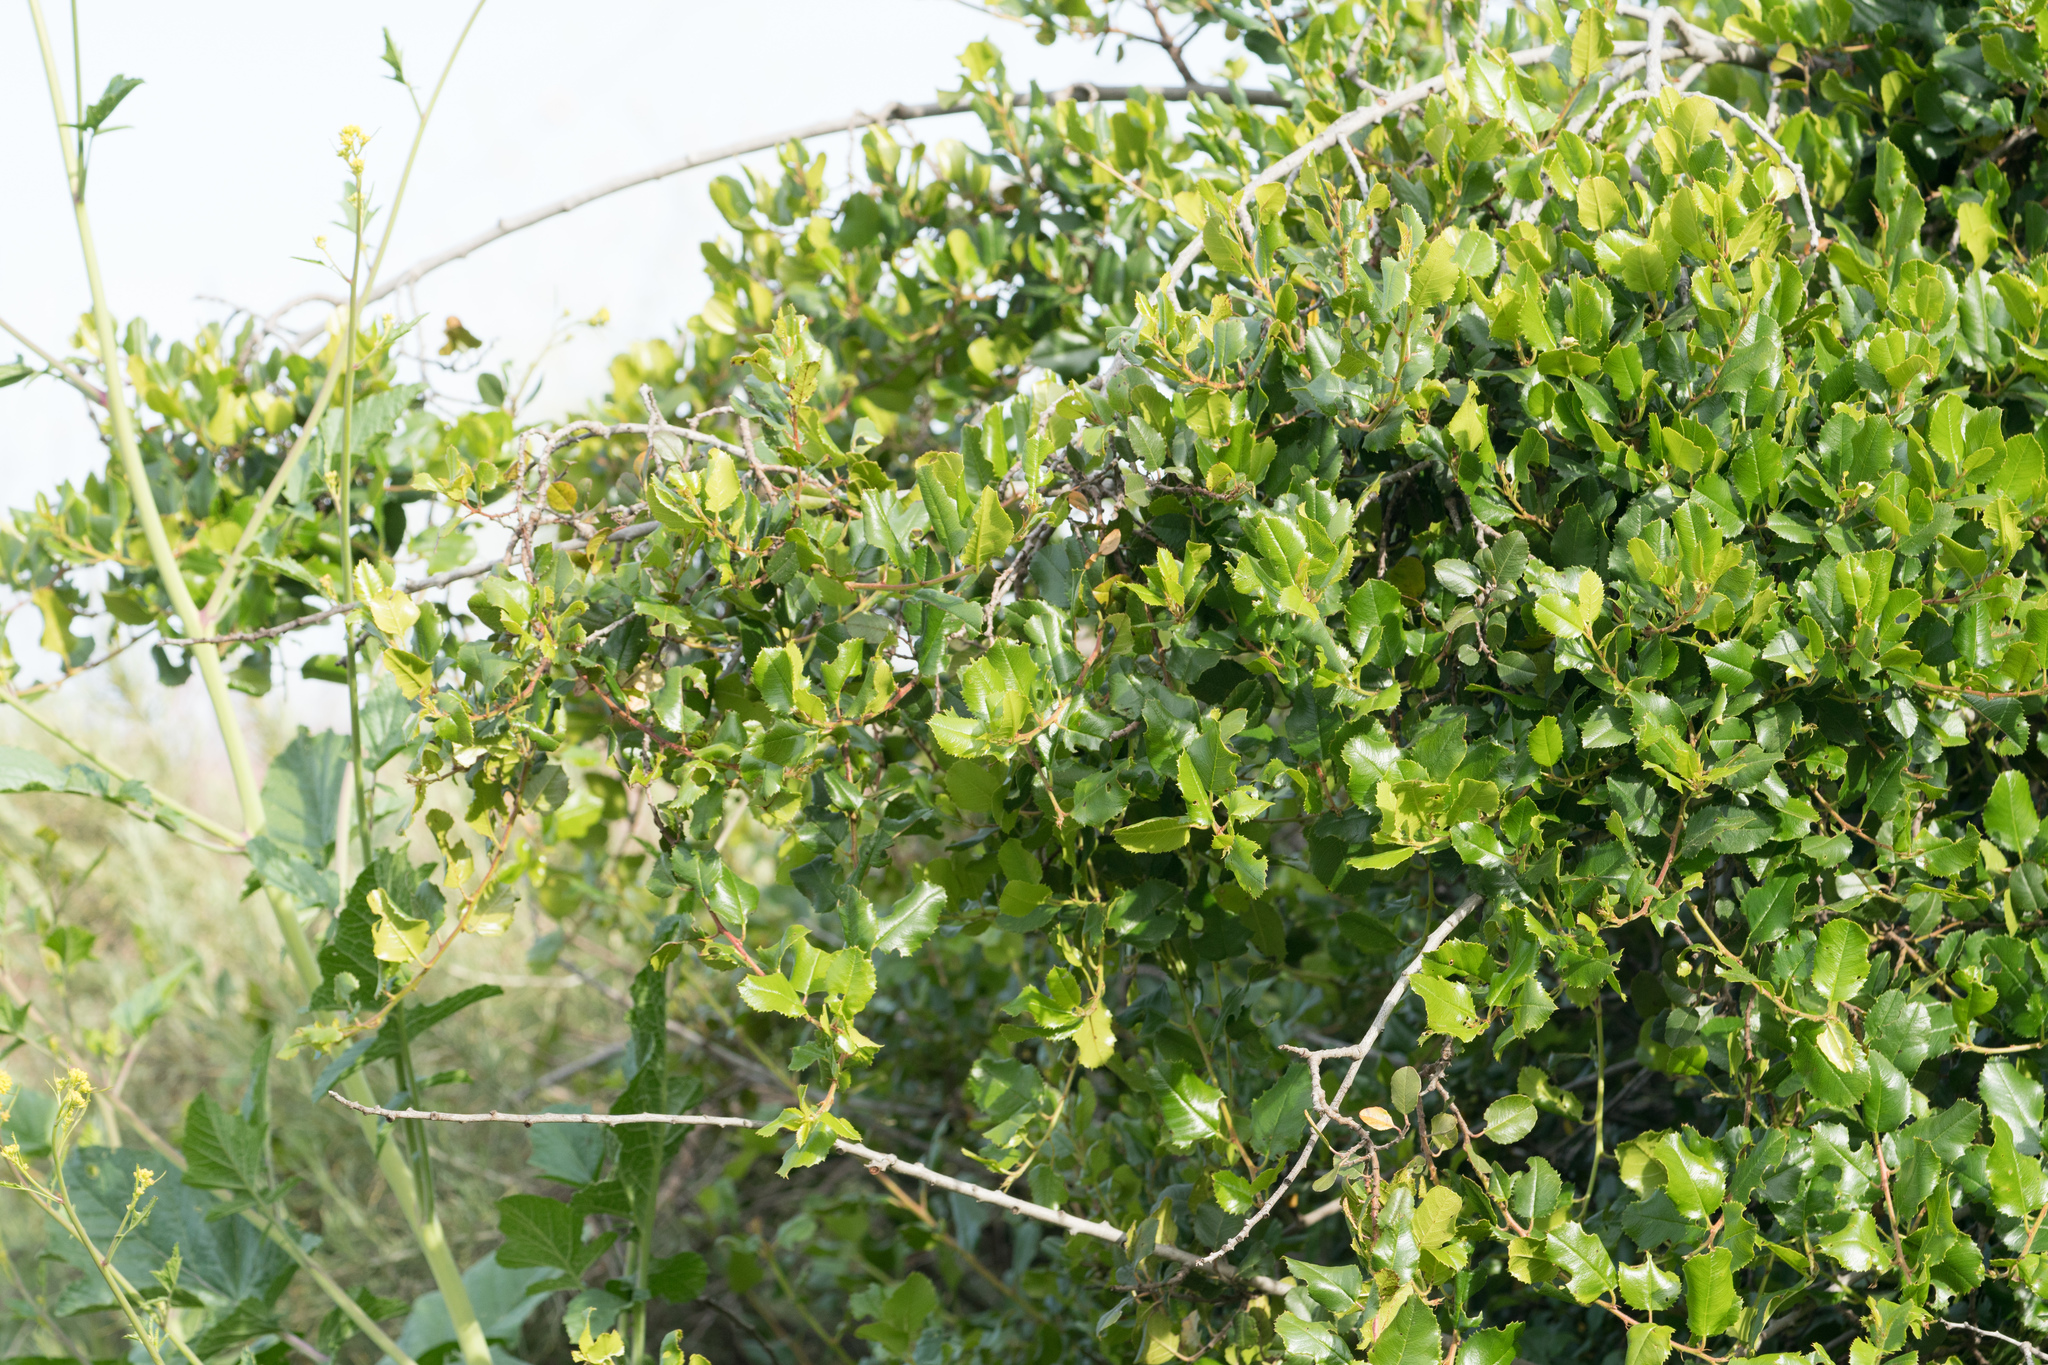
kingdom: Plantae
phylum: Tracheophyta
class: Magnoliopsida
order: Rosales
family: Rhamnaceae
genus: Endotropis
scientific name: Endotropis crocea
